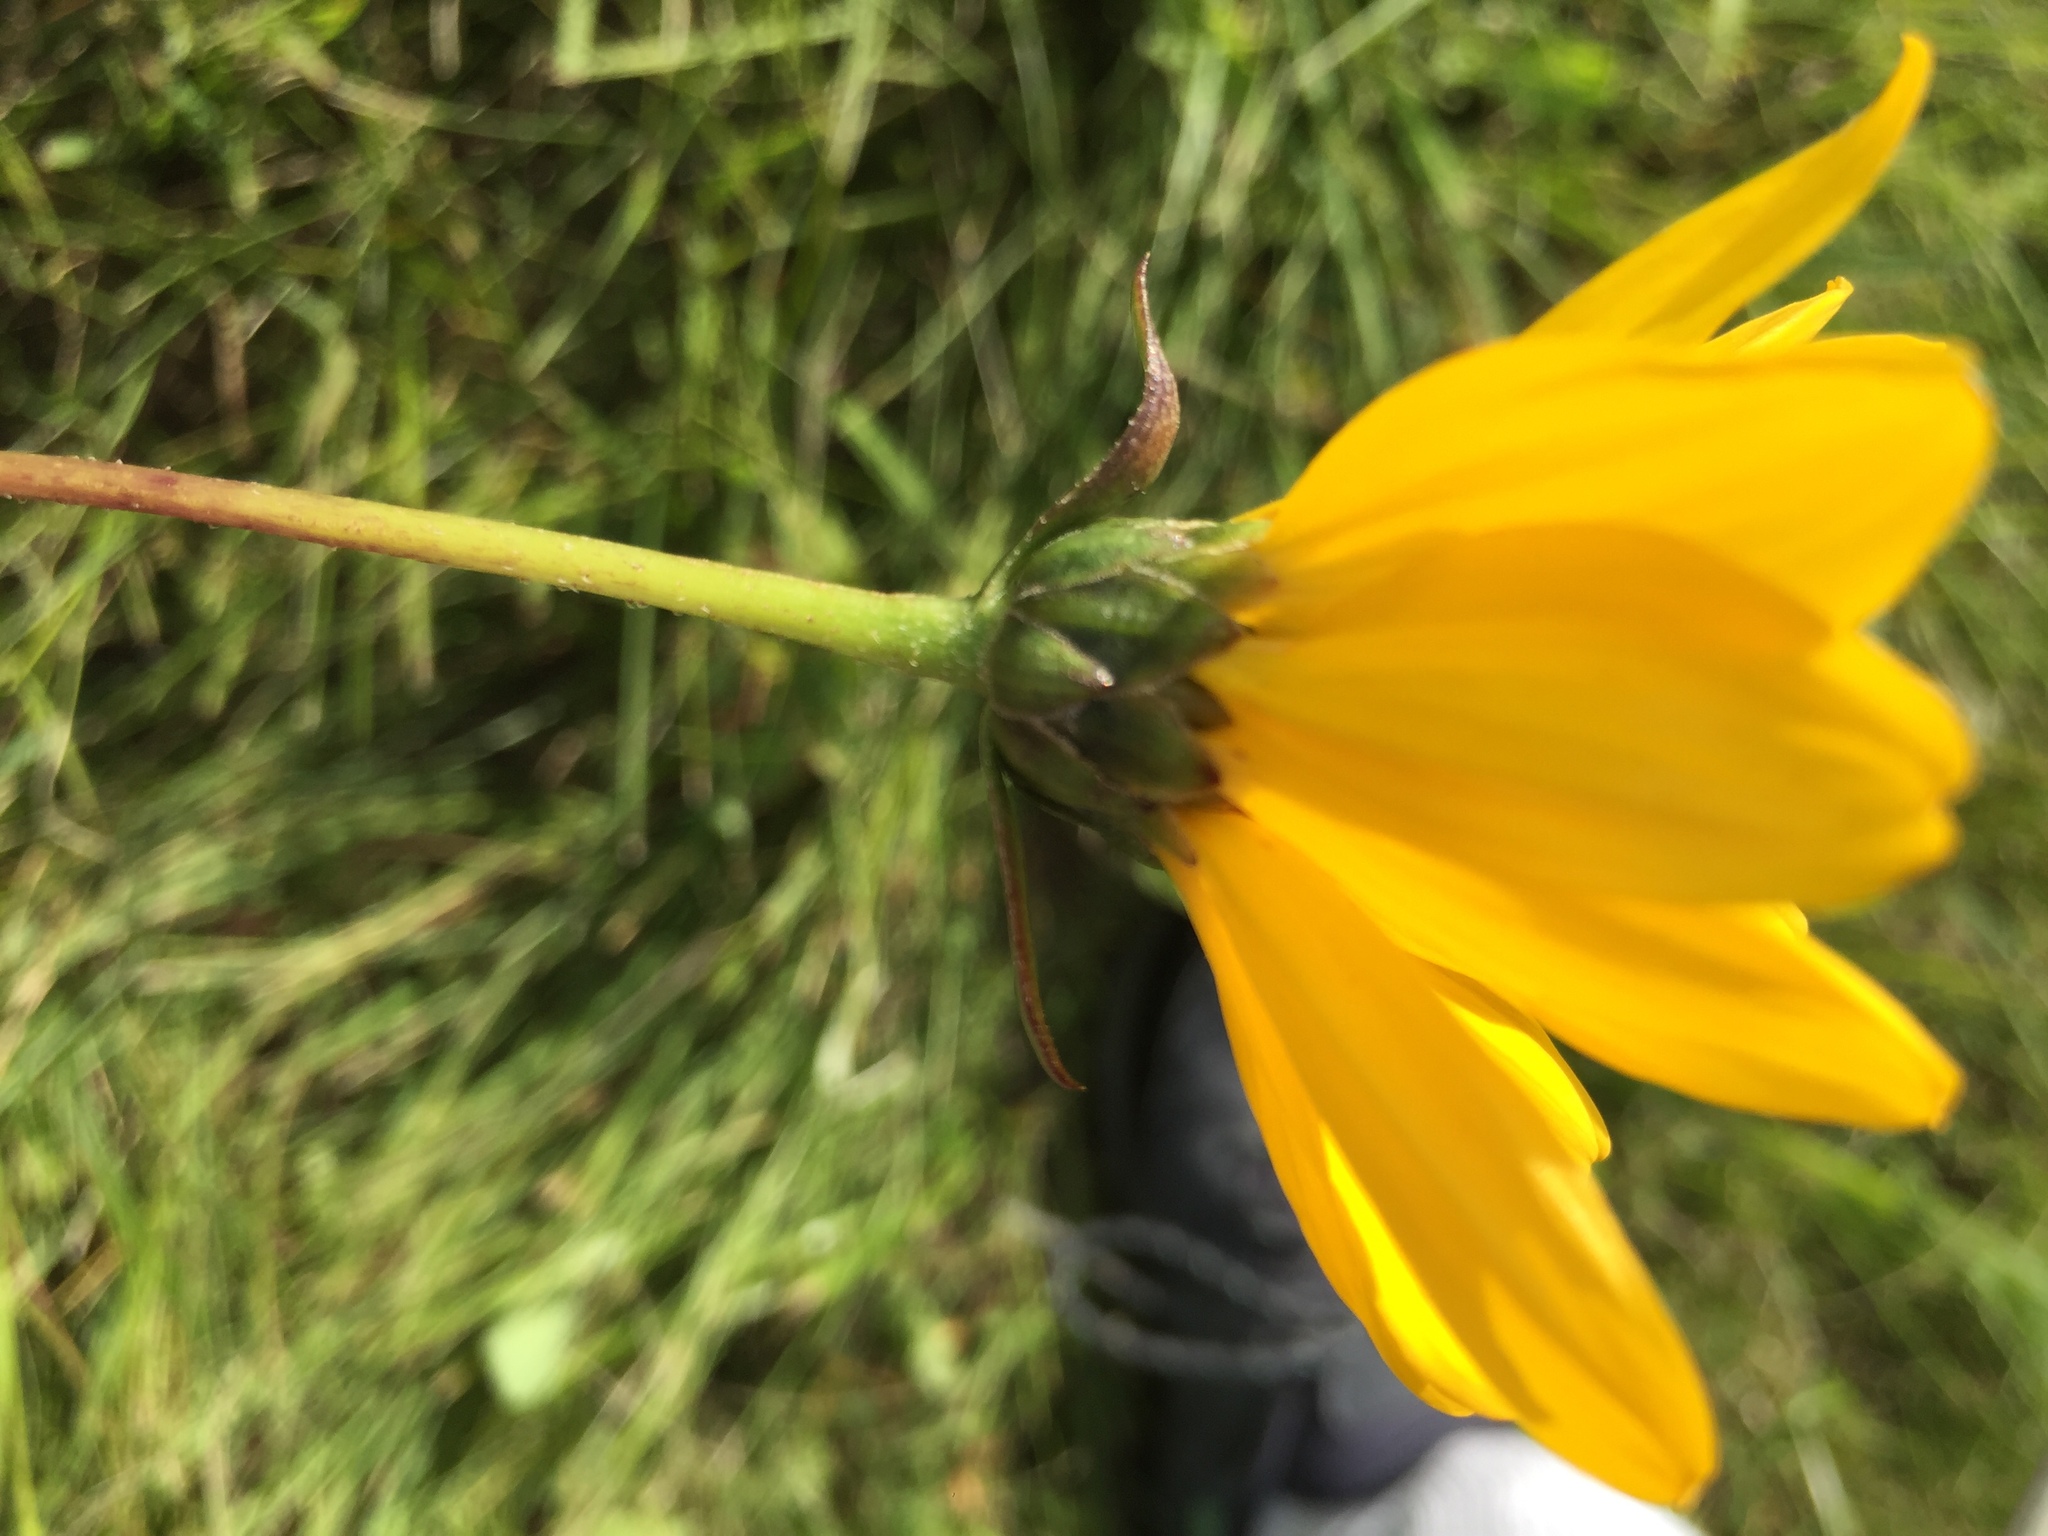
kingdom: Plantae
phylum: Tracheophyta
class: Magnoliopsida
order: Asterales
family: Asteraceae
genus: Helianthus
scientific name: Helianthus pauciflorus
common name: Stiff sunflower
